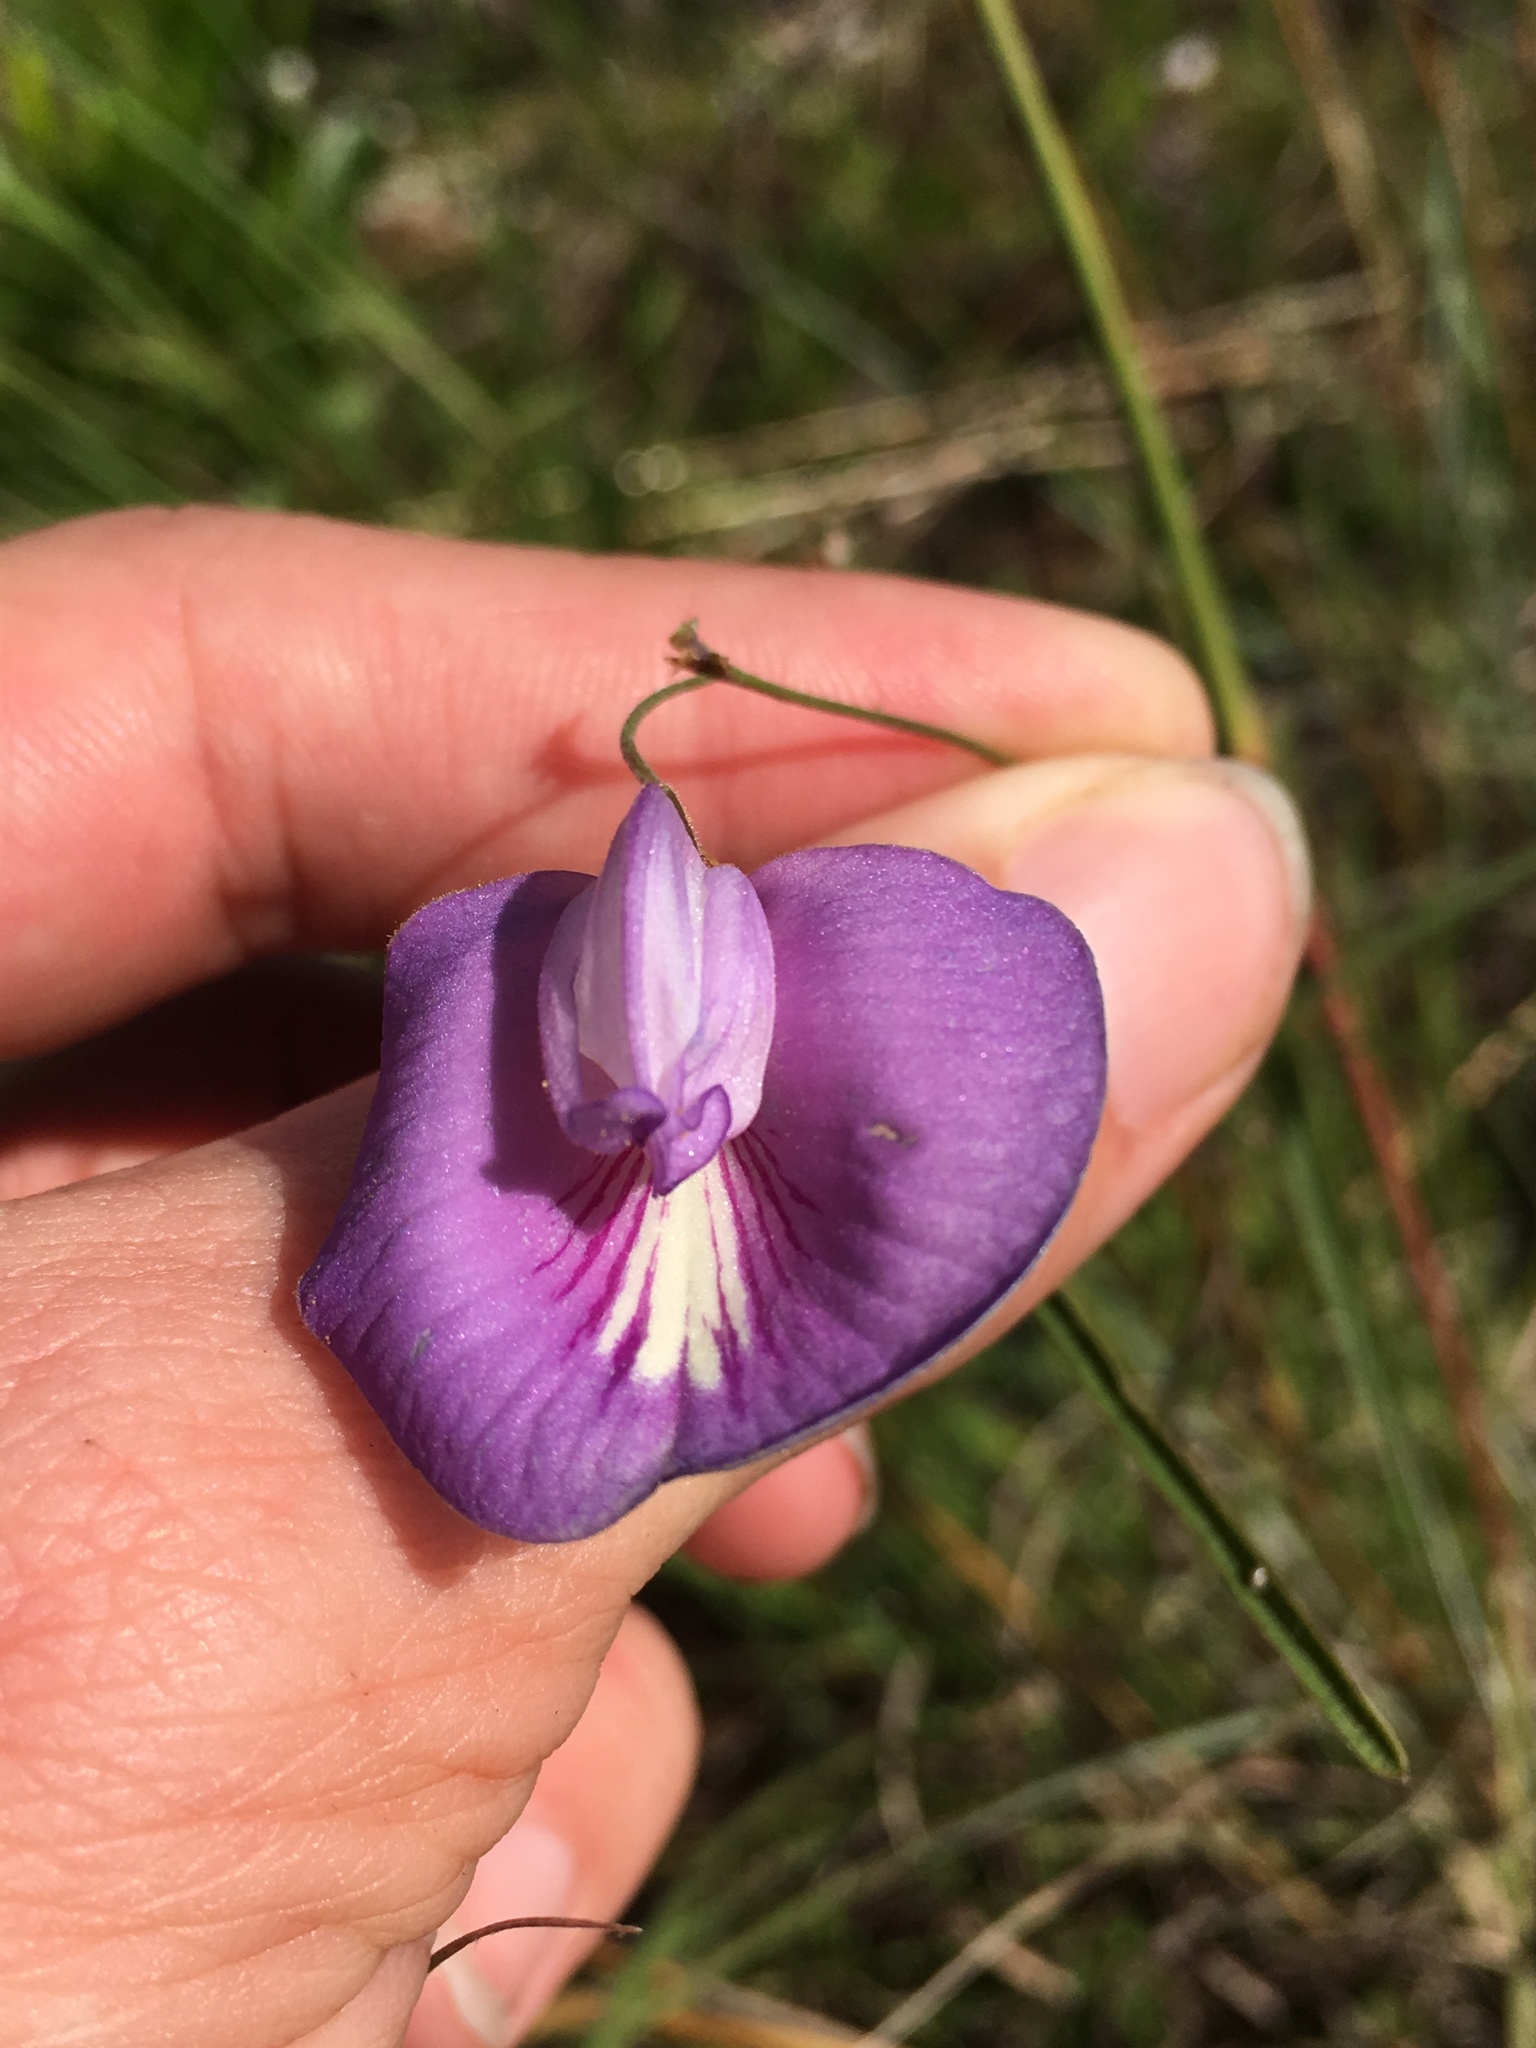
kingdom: Plantae
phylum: Tracheophyta
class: Magnoliopsida
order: Fabales
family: Fabaceae
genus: Centrosema
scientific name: Centrosema virginianum
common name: Butterfly-pea
